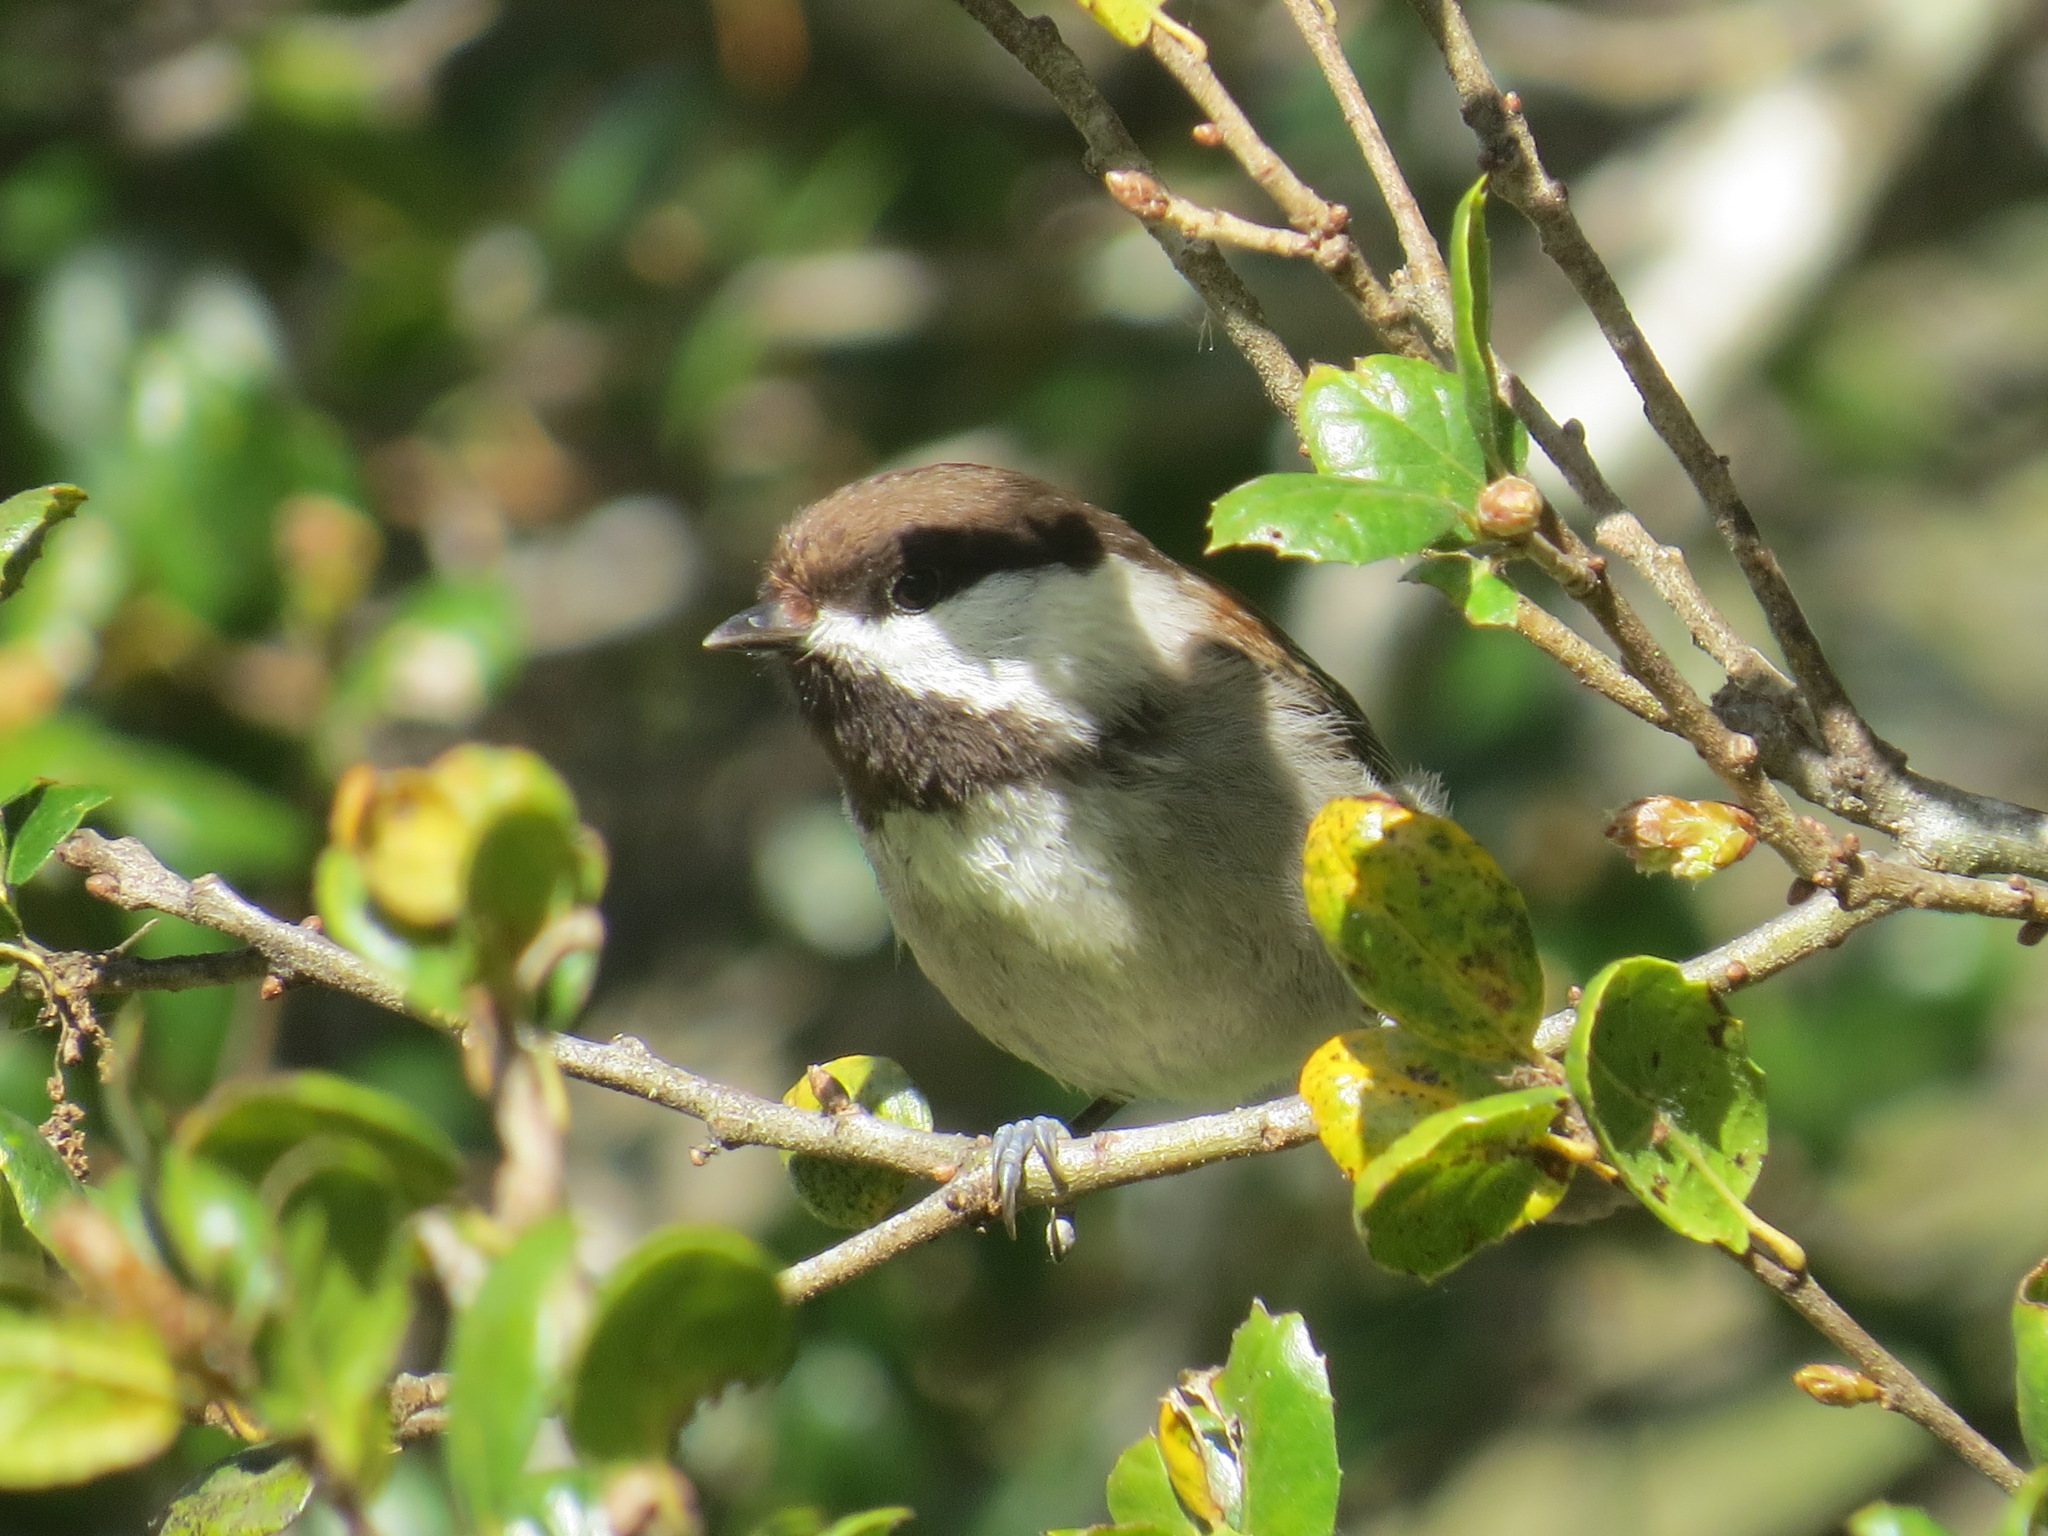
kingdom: Animalia
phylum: Chordata
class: Aves
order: Passeriformes
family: Paridae
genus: Poecile
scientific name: Poecile rufescens
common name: Chestnut-backed chickadee
